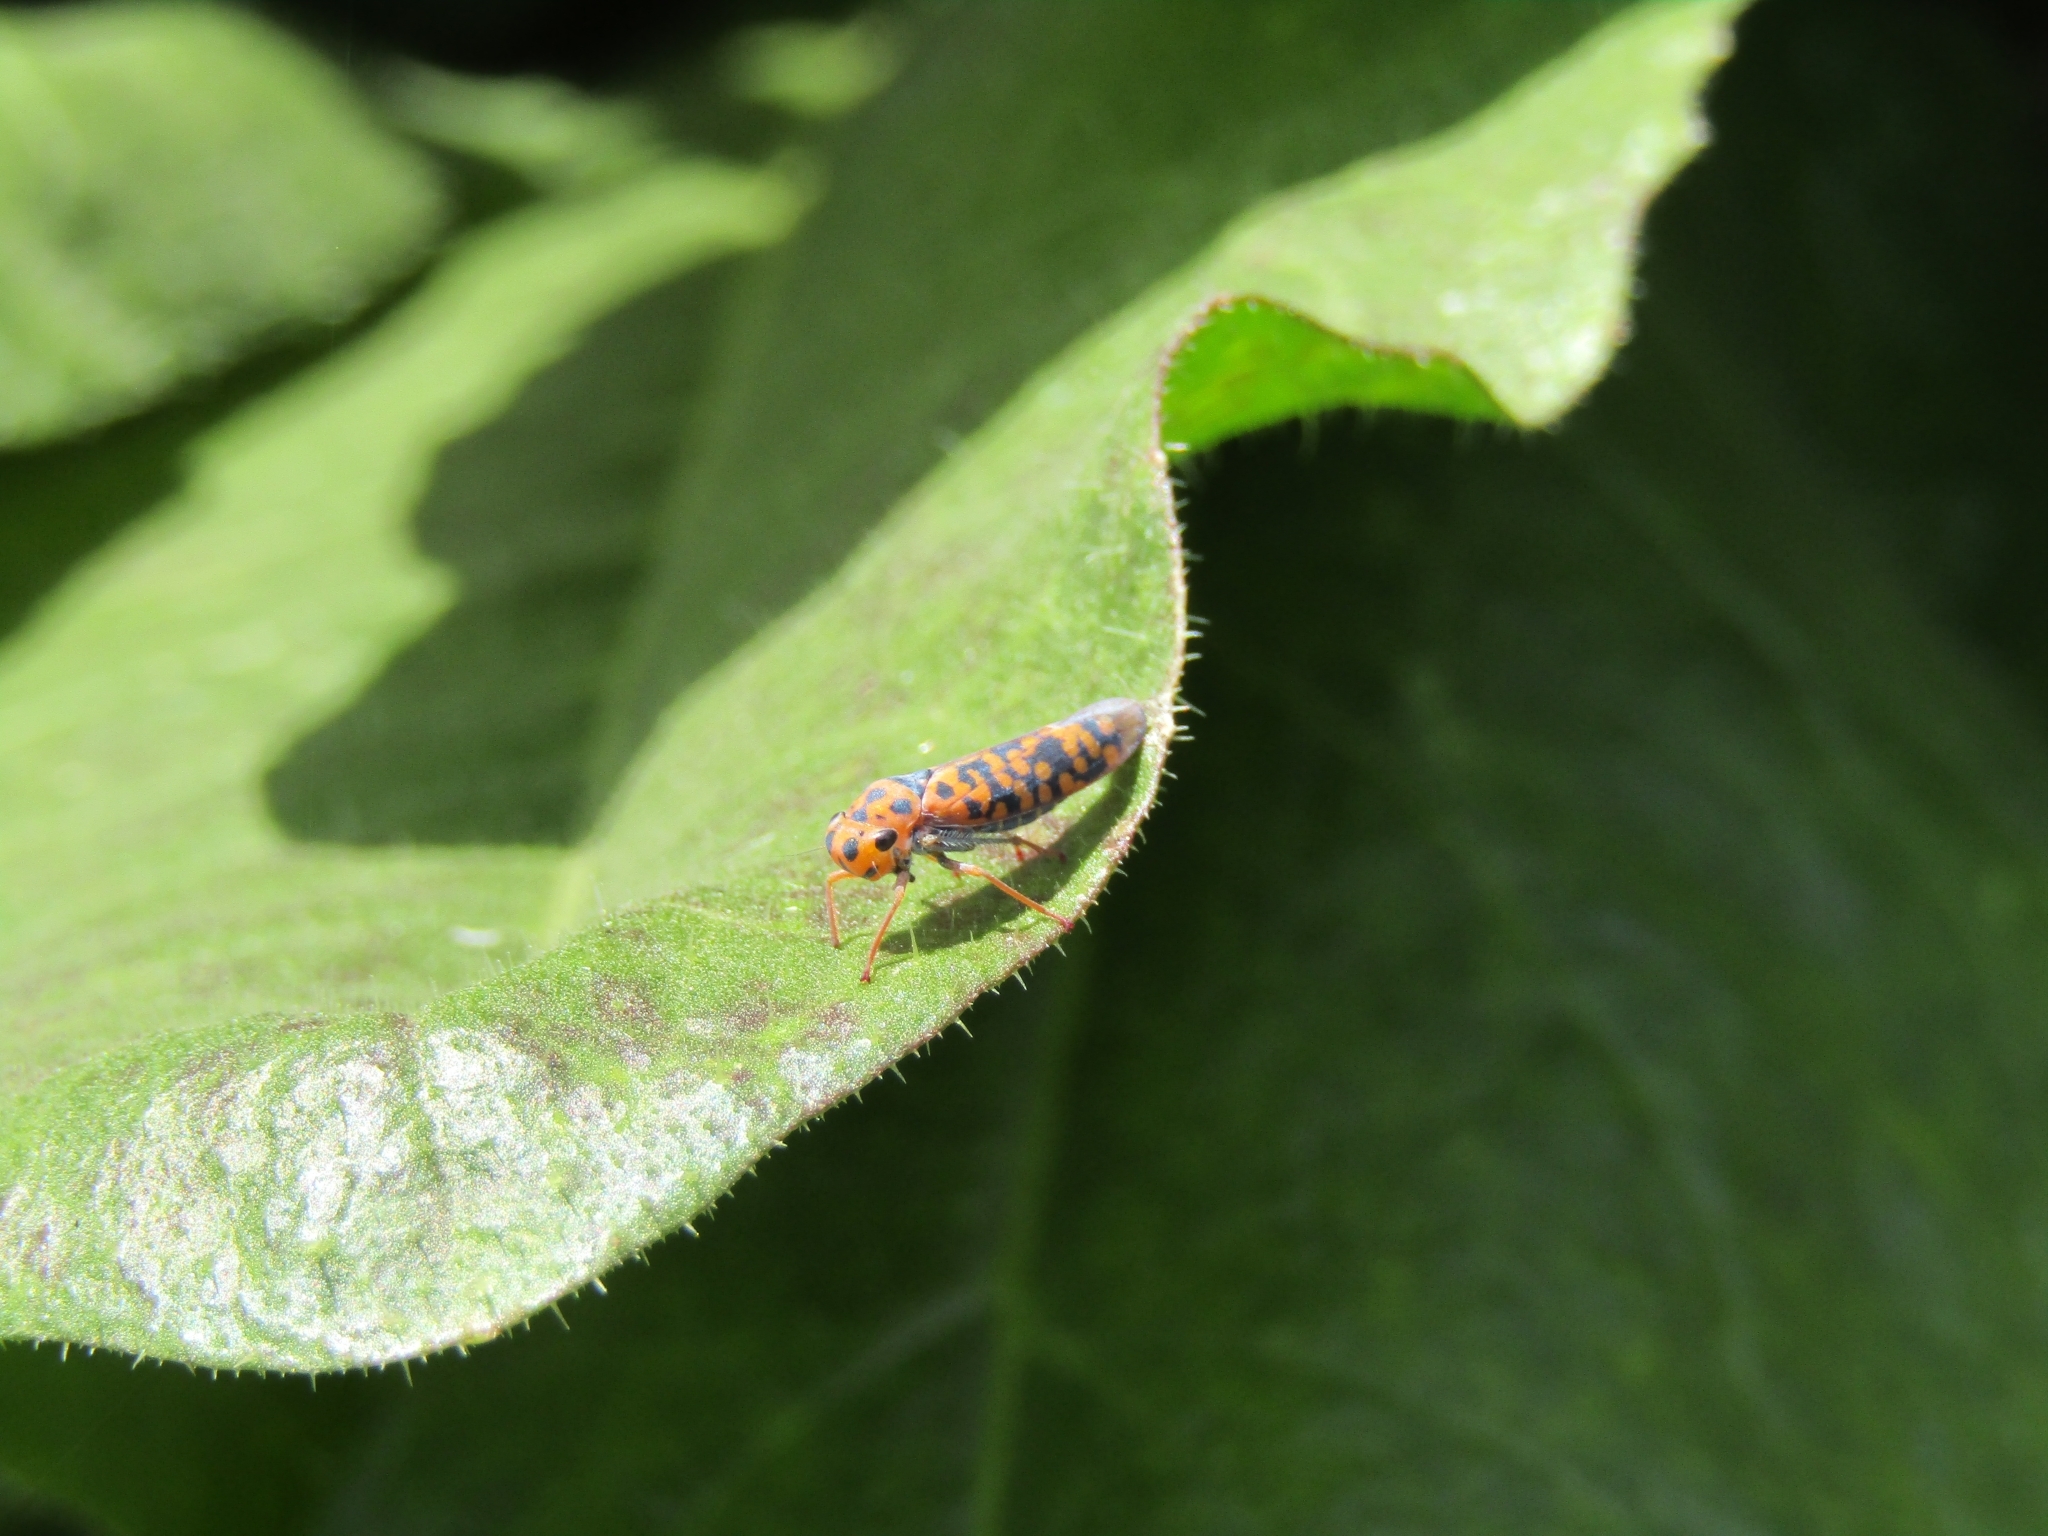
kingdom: Animalia
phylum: Arthropoda
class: Insecta
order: Hemiptera
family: Cicadellidae
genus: Pawiloma
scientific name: Pawiloma victima
